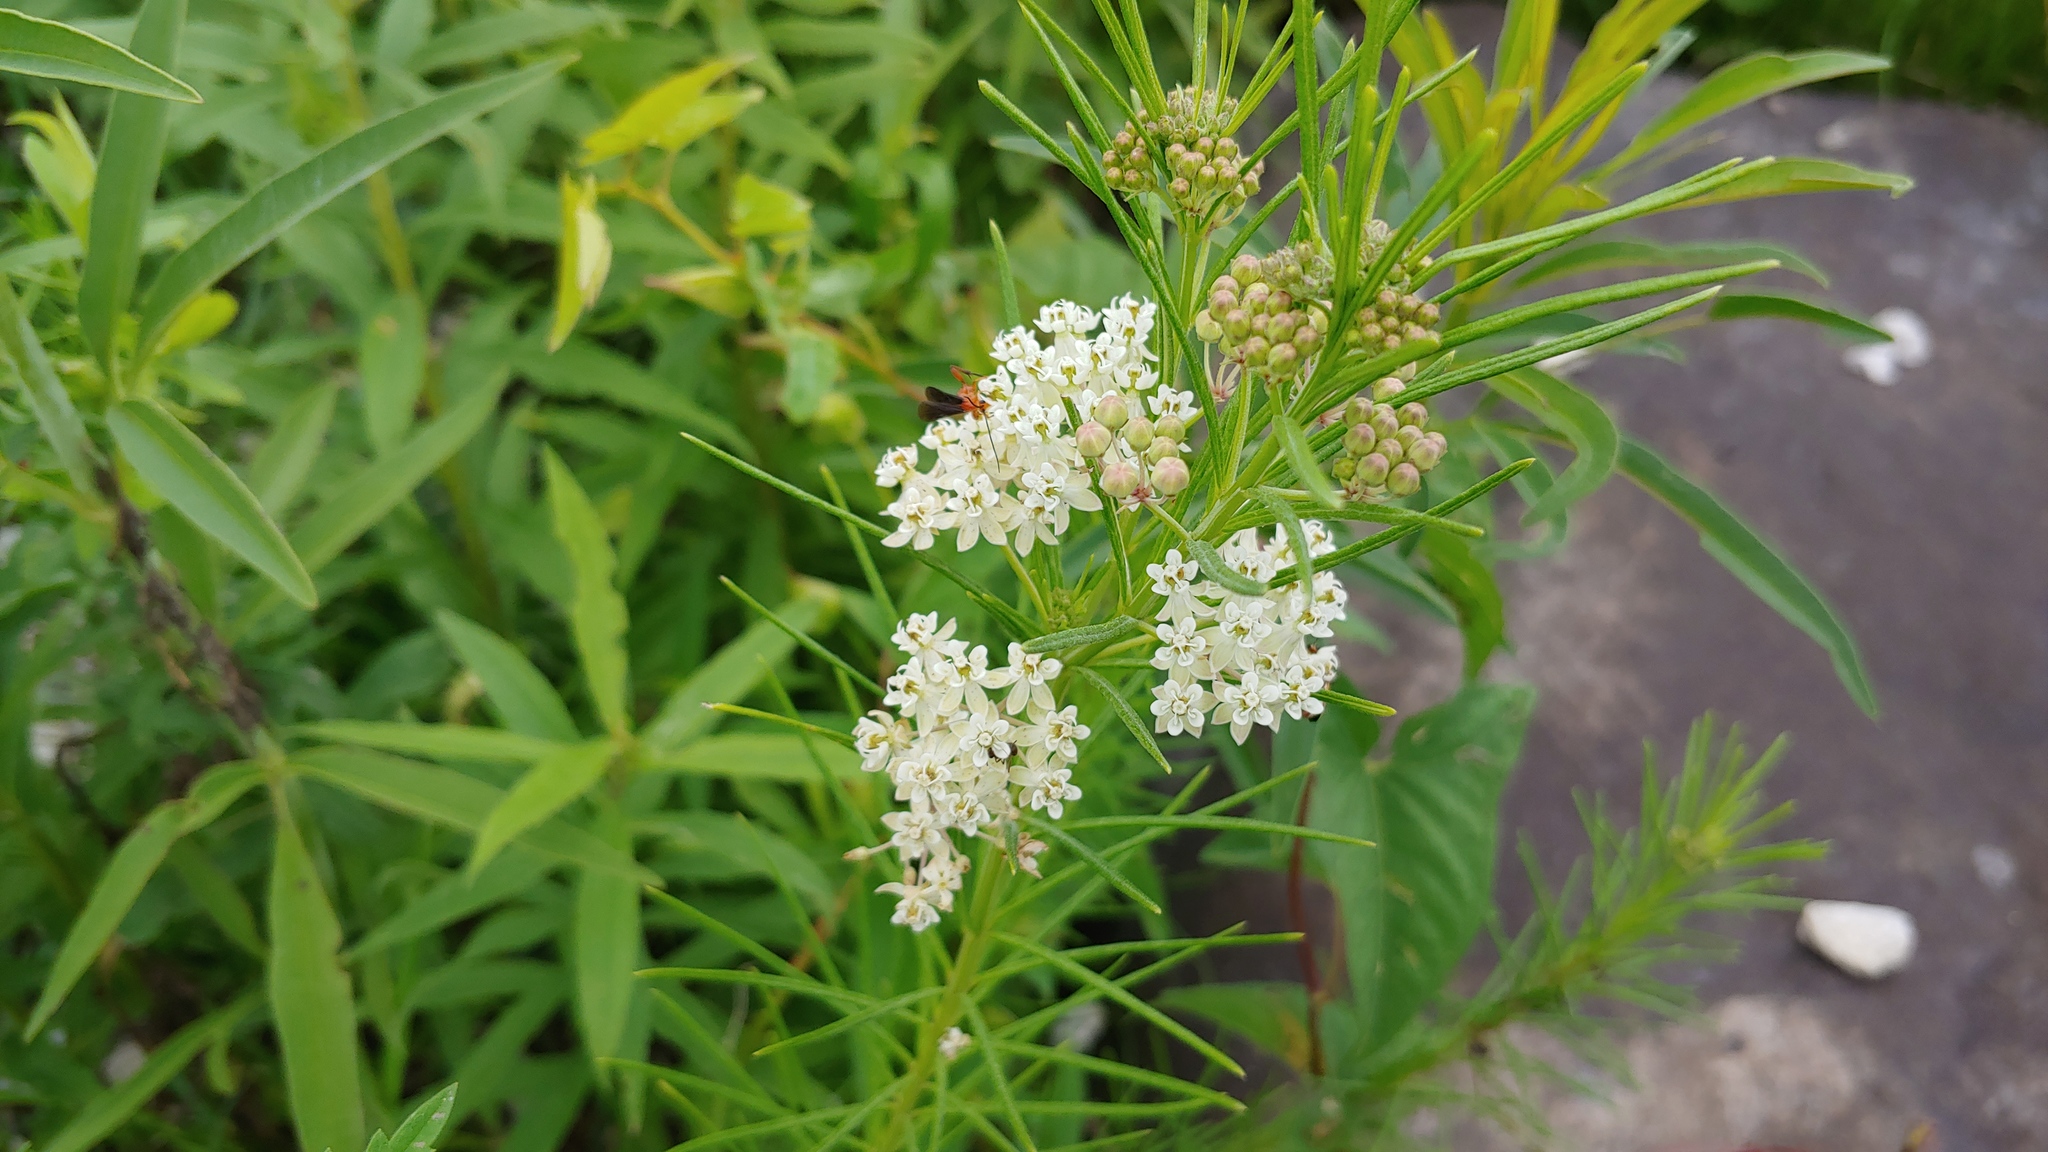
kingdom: Plantae
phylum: Tracheophyta
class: Magnoliopsida
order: Gentianales
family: Apocynaceae
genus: Asclepias
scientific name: Asclepias verticillata
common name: Eastern whorled milkweed
